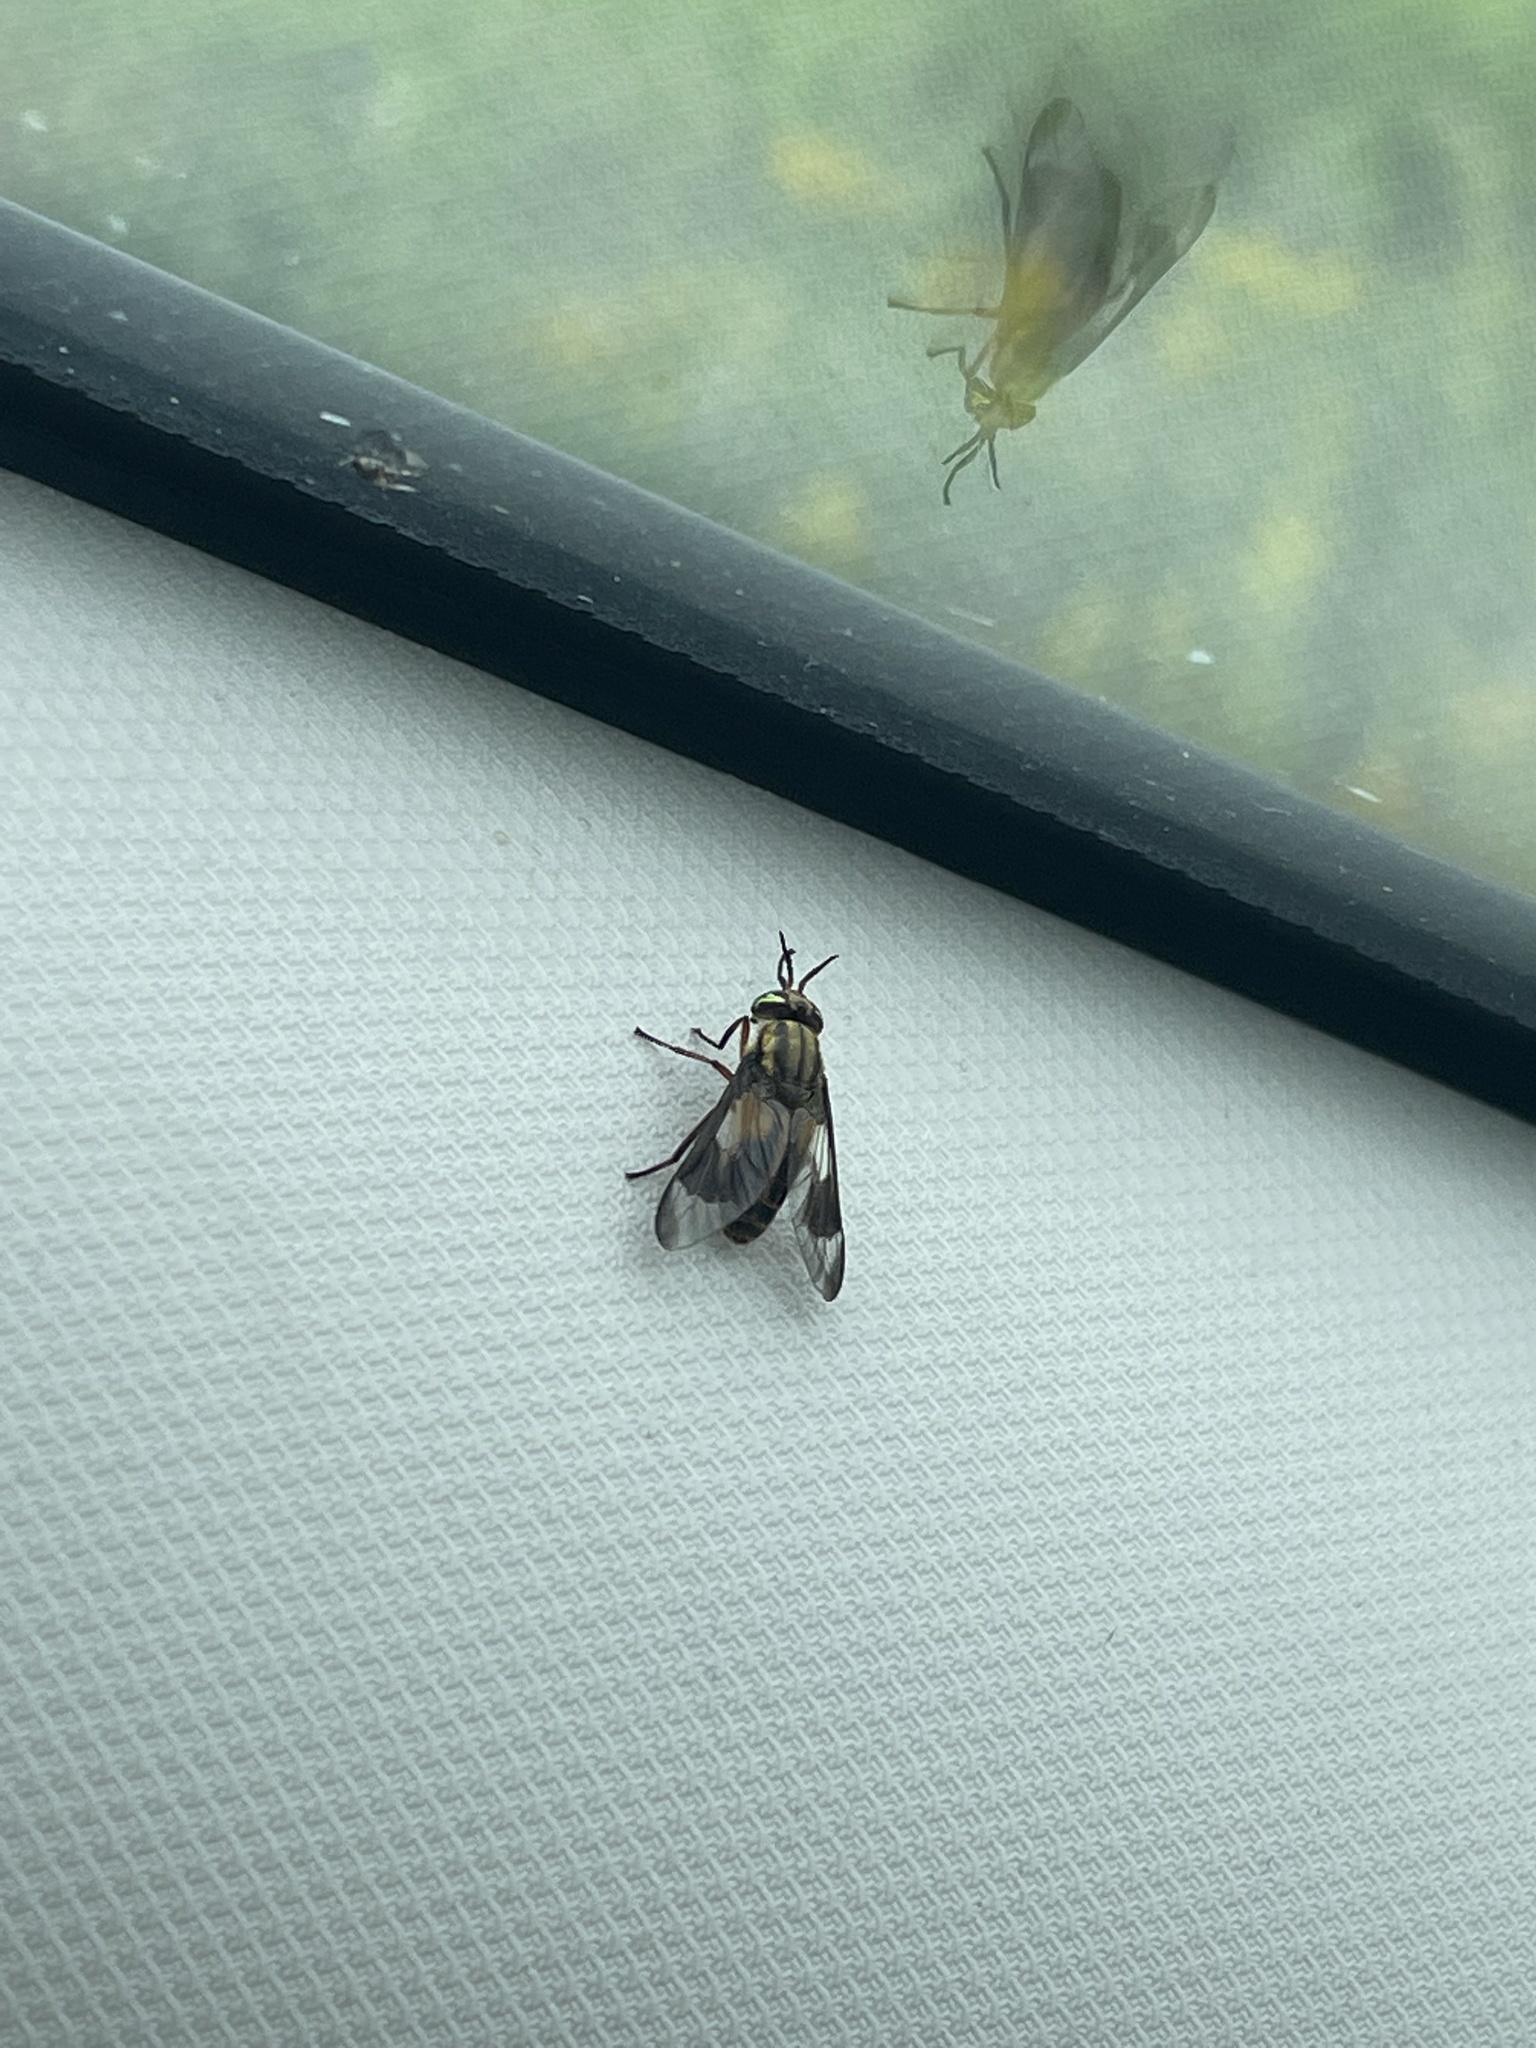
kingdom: Animalia
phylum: Arthropoda
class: Insecta
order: Diptera
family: Tabanidae
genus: Chrysops
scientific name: Chrysops lateralis
